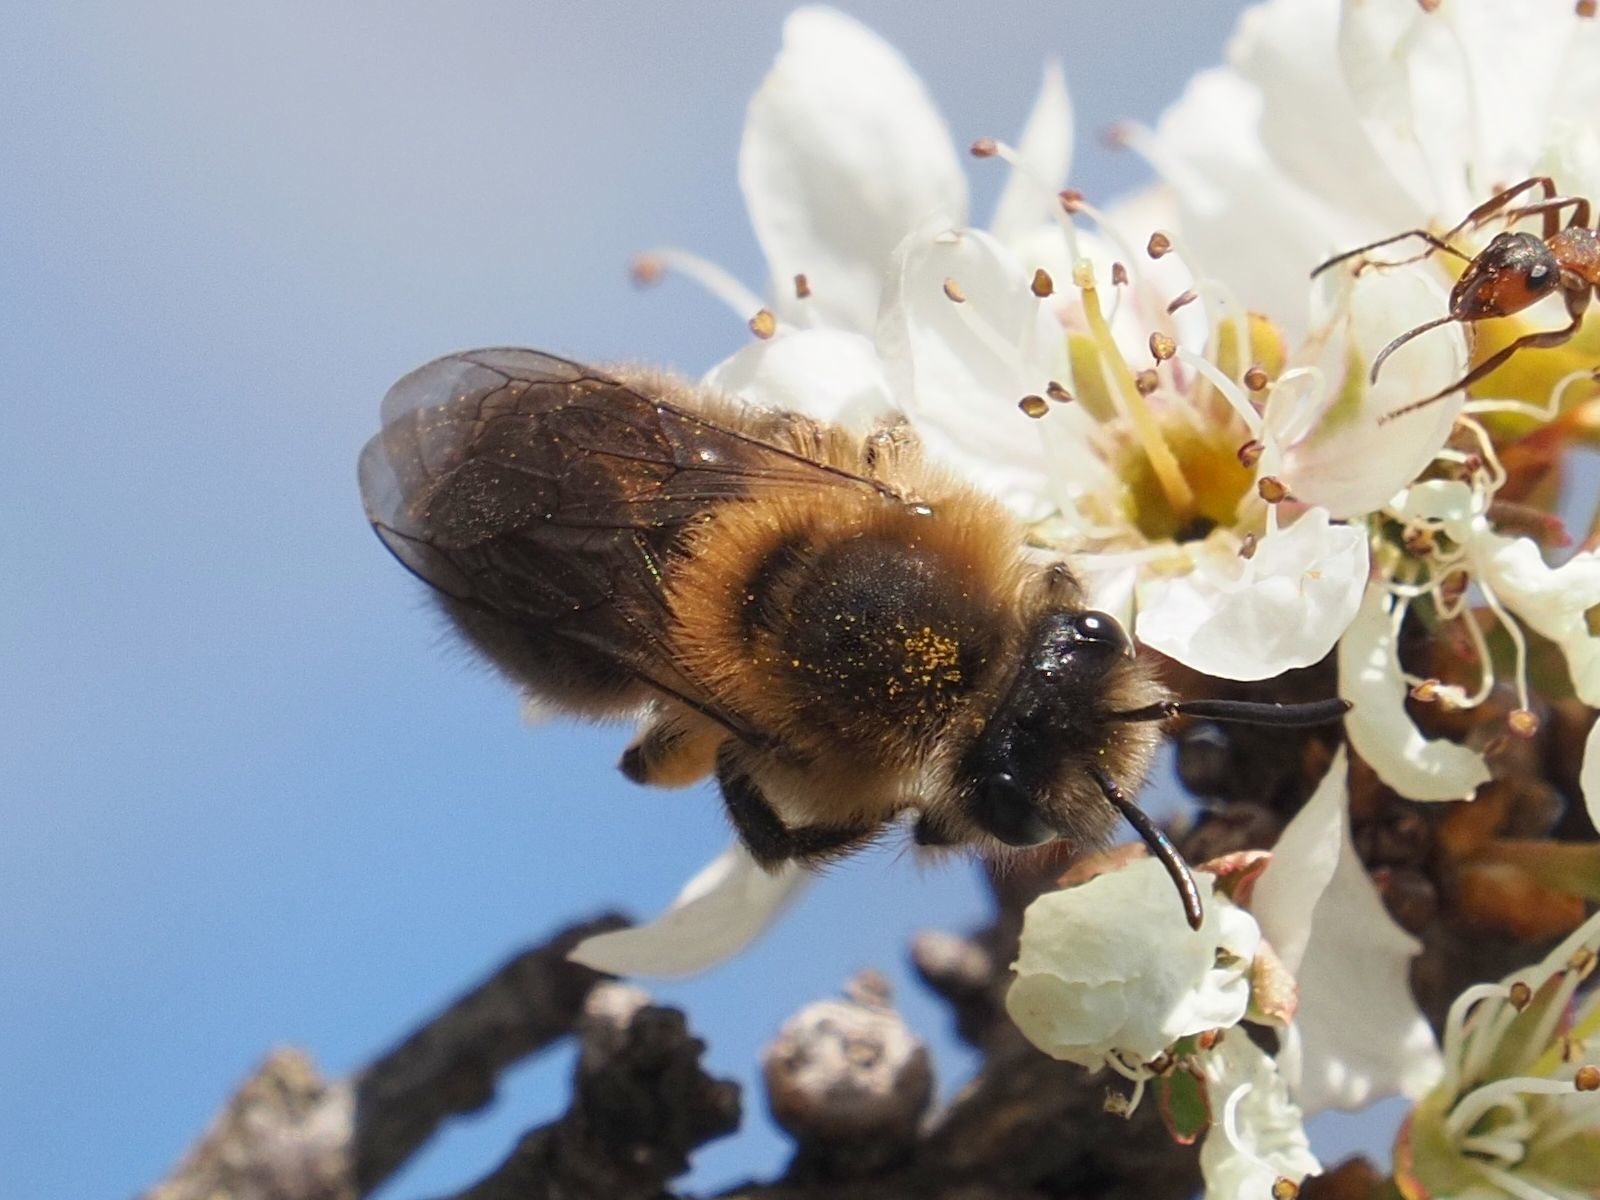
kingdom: Animalia
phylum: Arthropoda
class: Insecta
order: Hymenoptera
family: Colletidae
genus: Colletes
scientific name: Colletes cunicularius
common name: Early colletes
